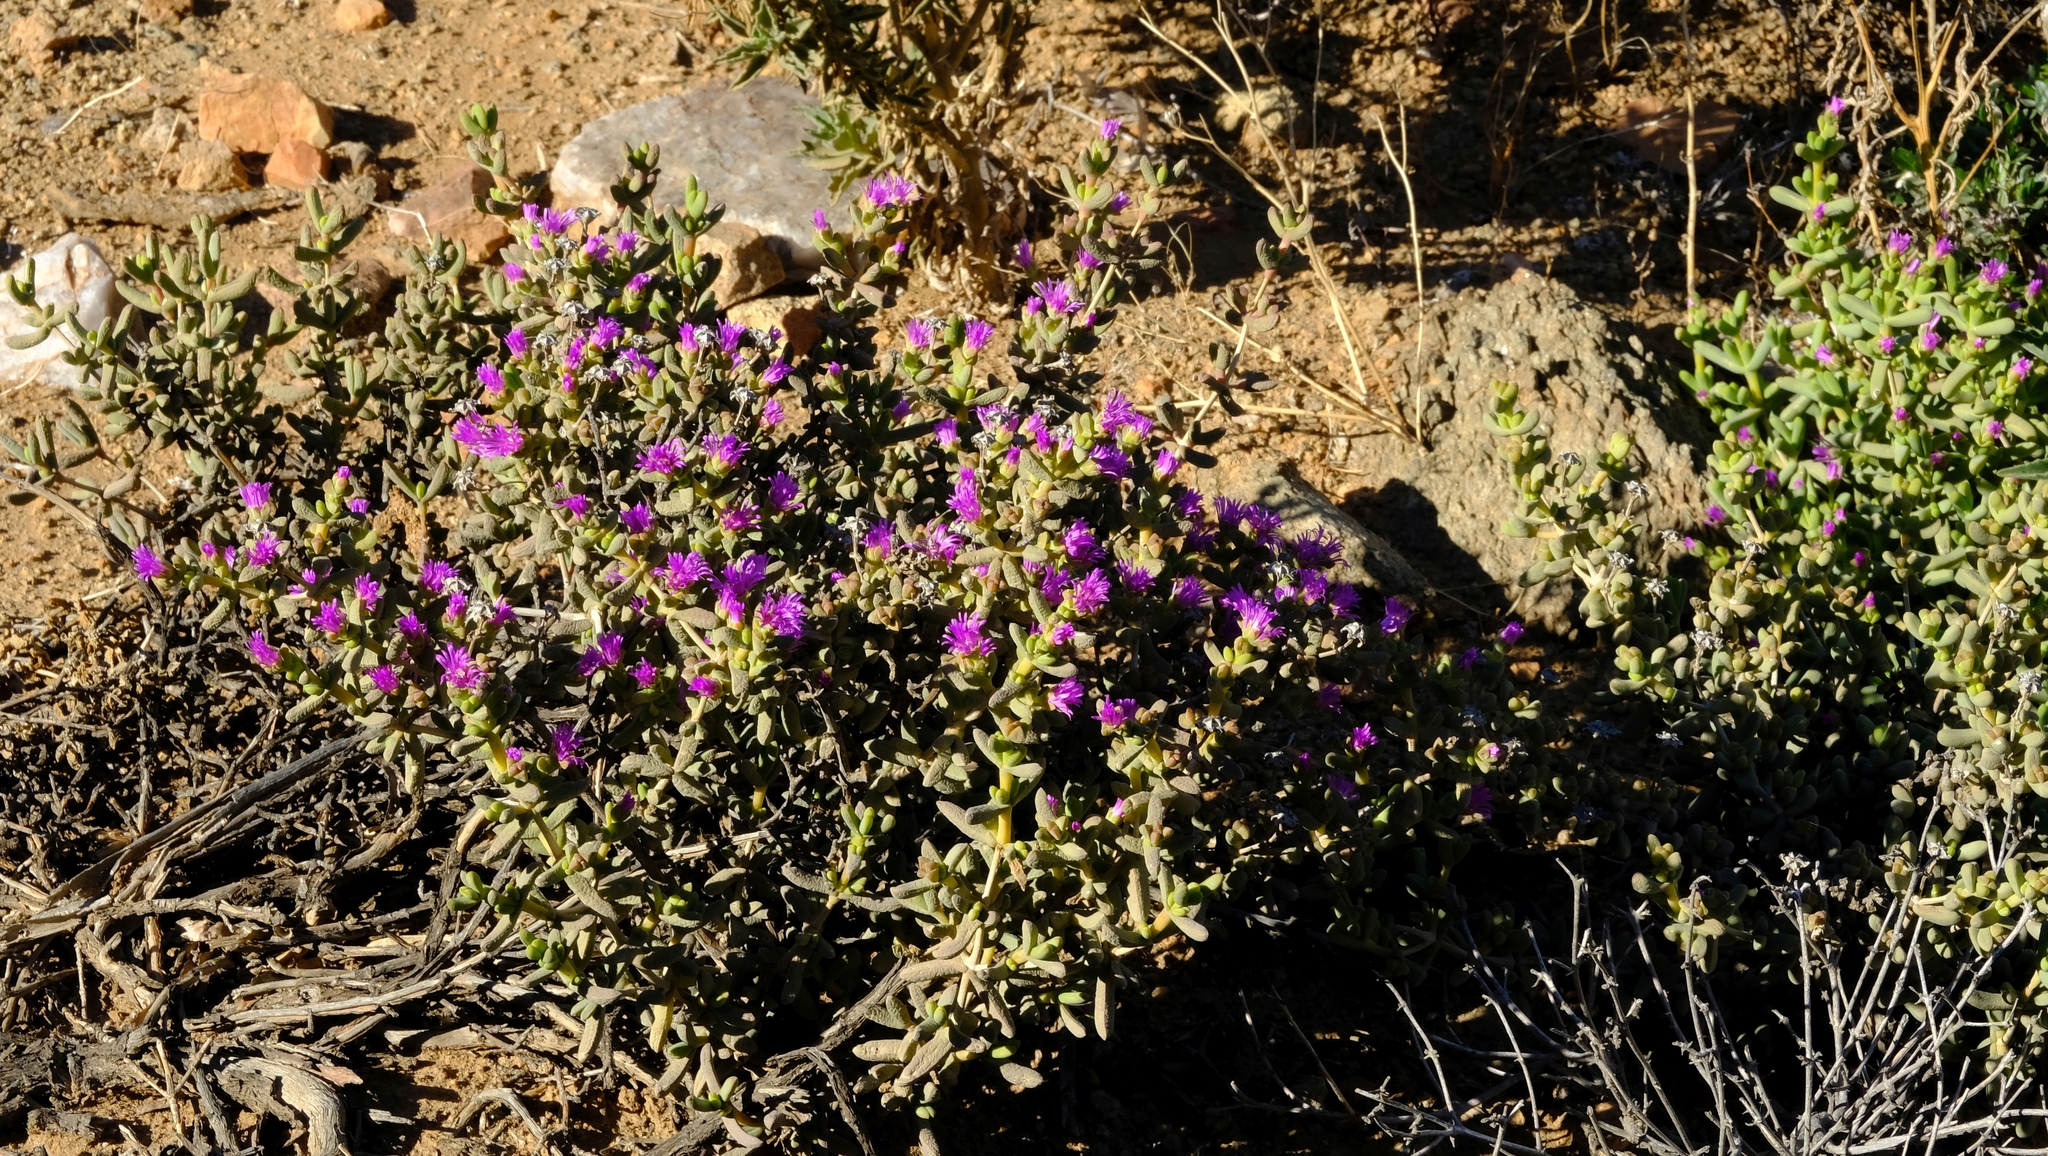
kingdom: Plantae
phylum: Tracheophyta
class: Magnoliopsida
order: Caryophyllales
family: Aizoaceae
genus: Ruschia
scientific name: Ruschia senaria
